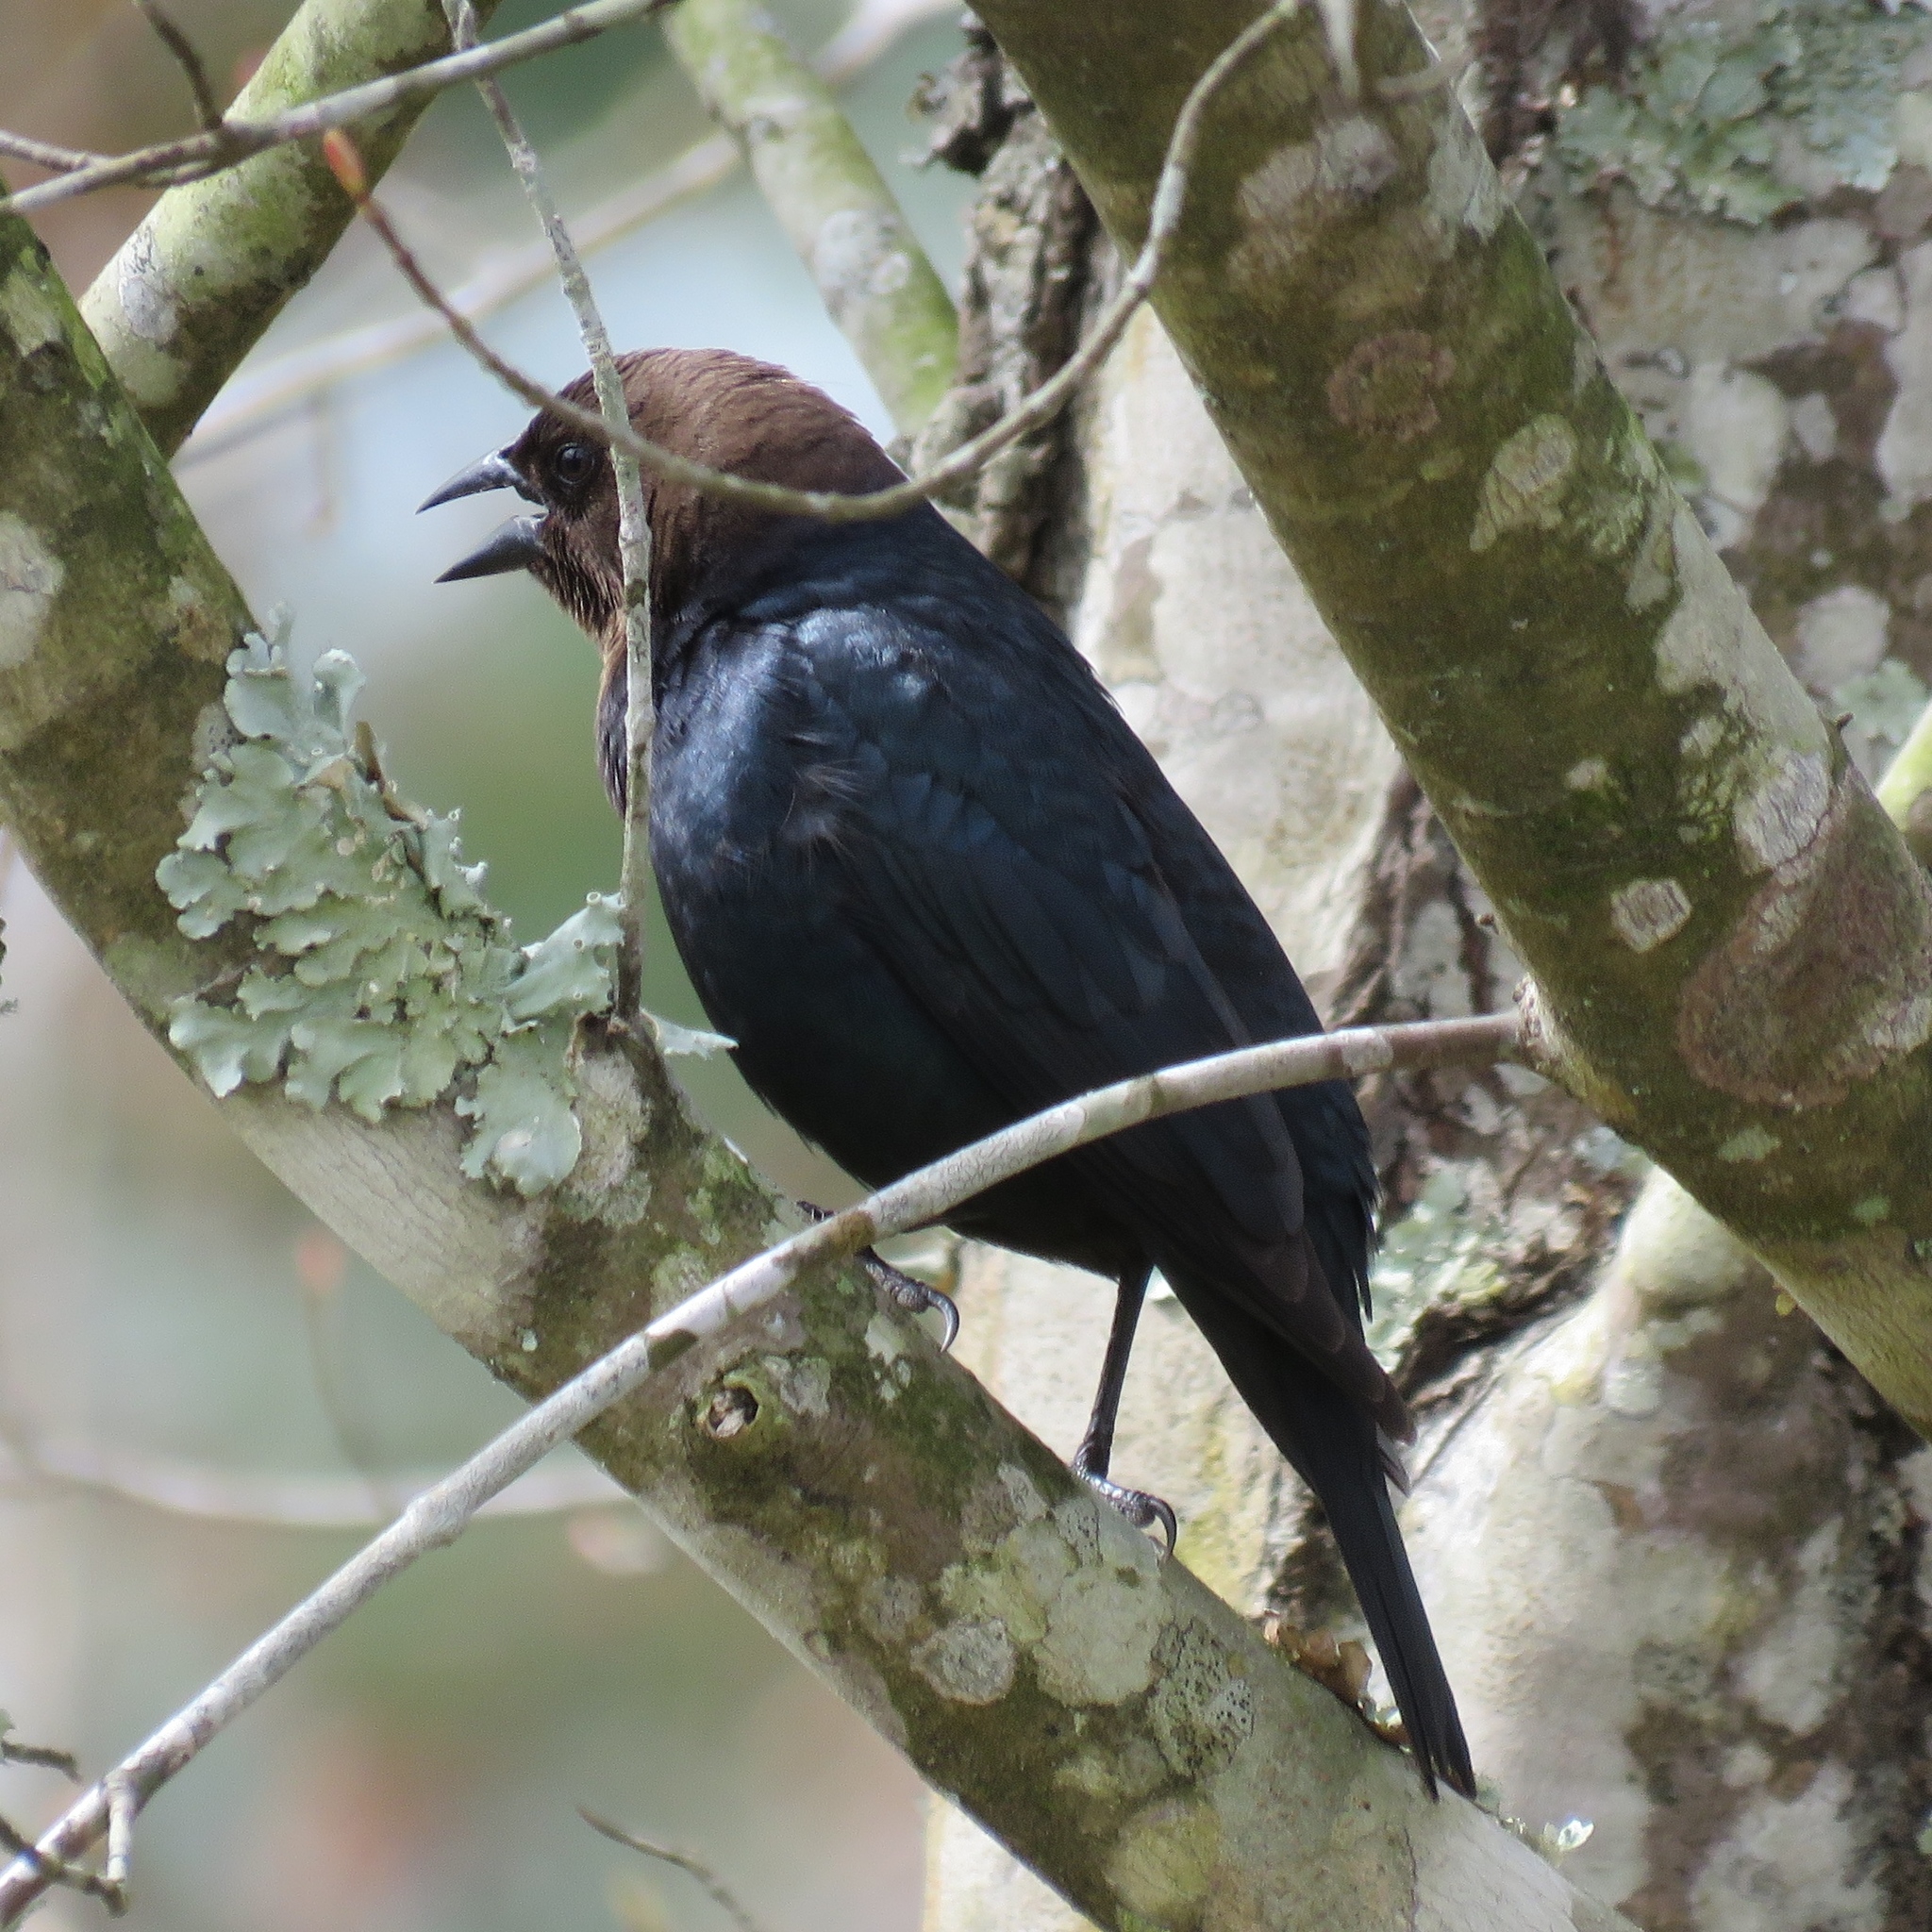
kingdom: Animalia
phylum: Chordata
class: Aves
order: Passeriformes
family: Icteridae
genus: Molothrus
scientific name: Molothrus ater
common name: Brown-headed cowbird
